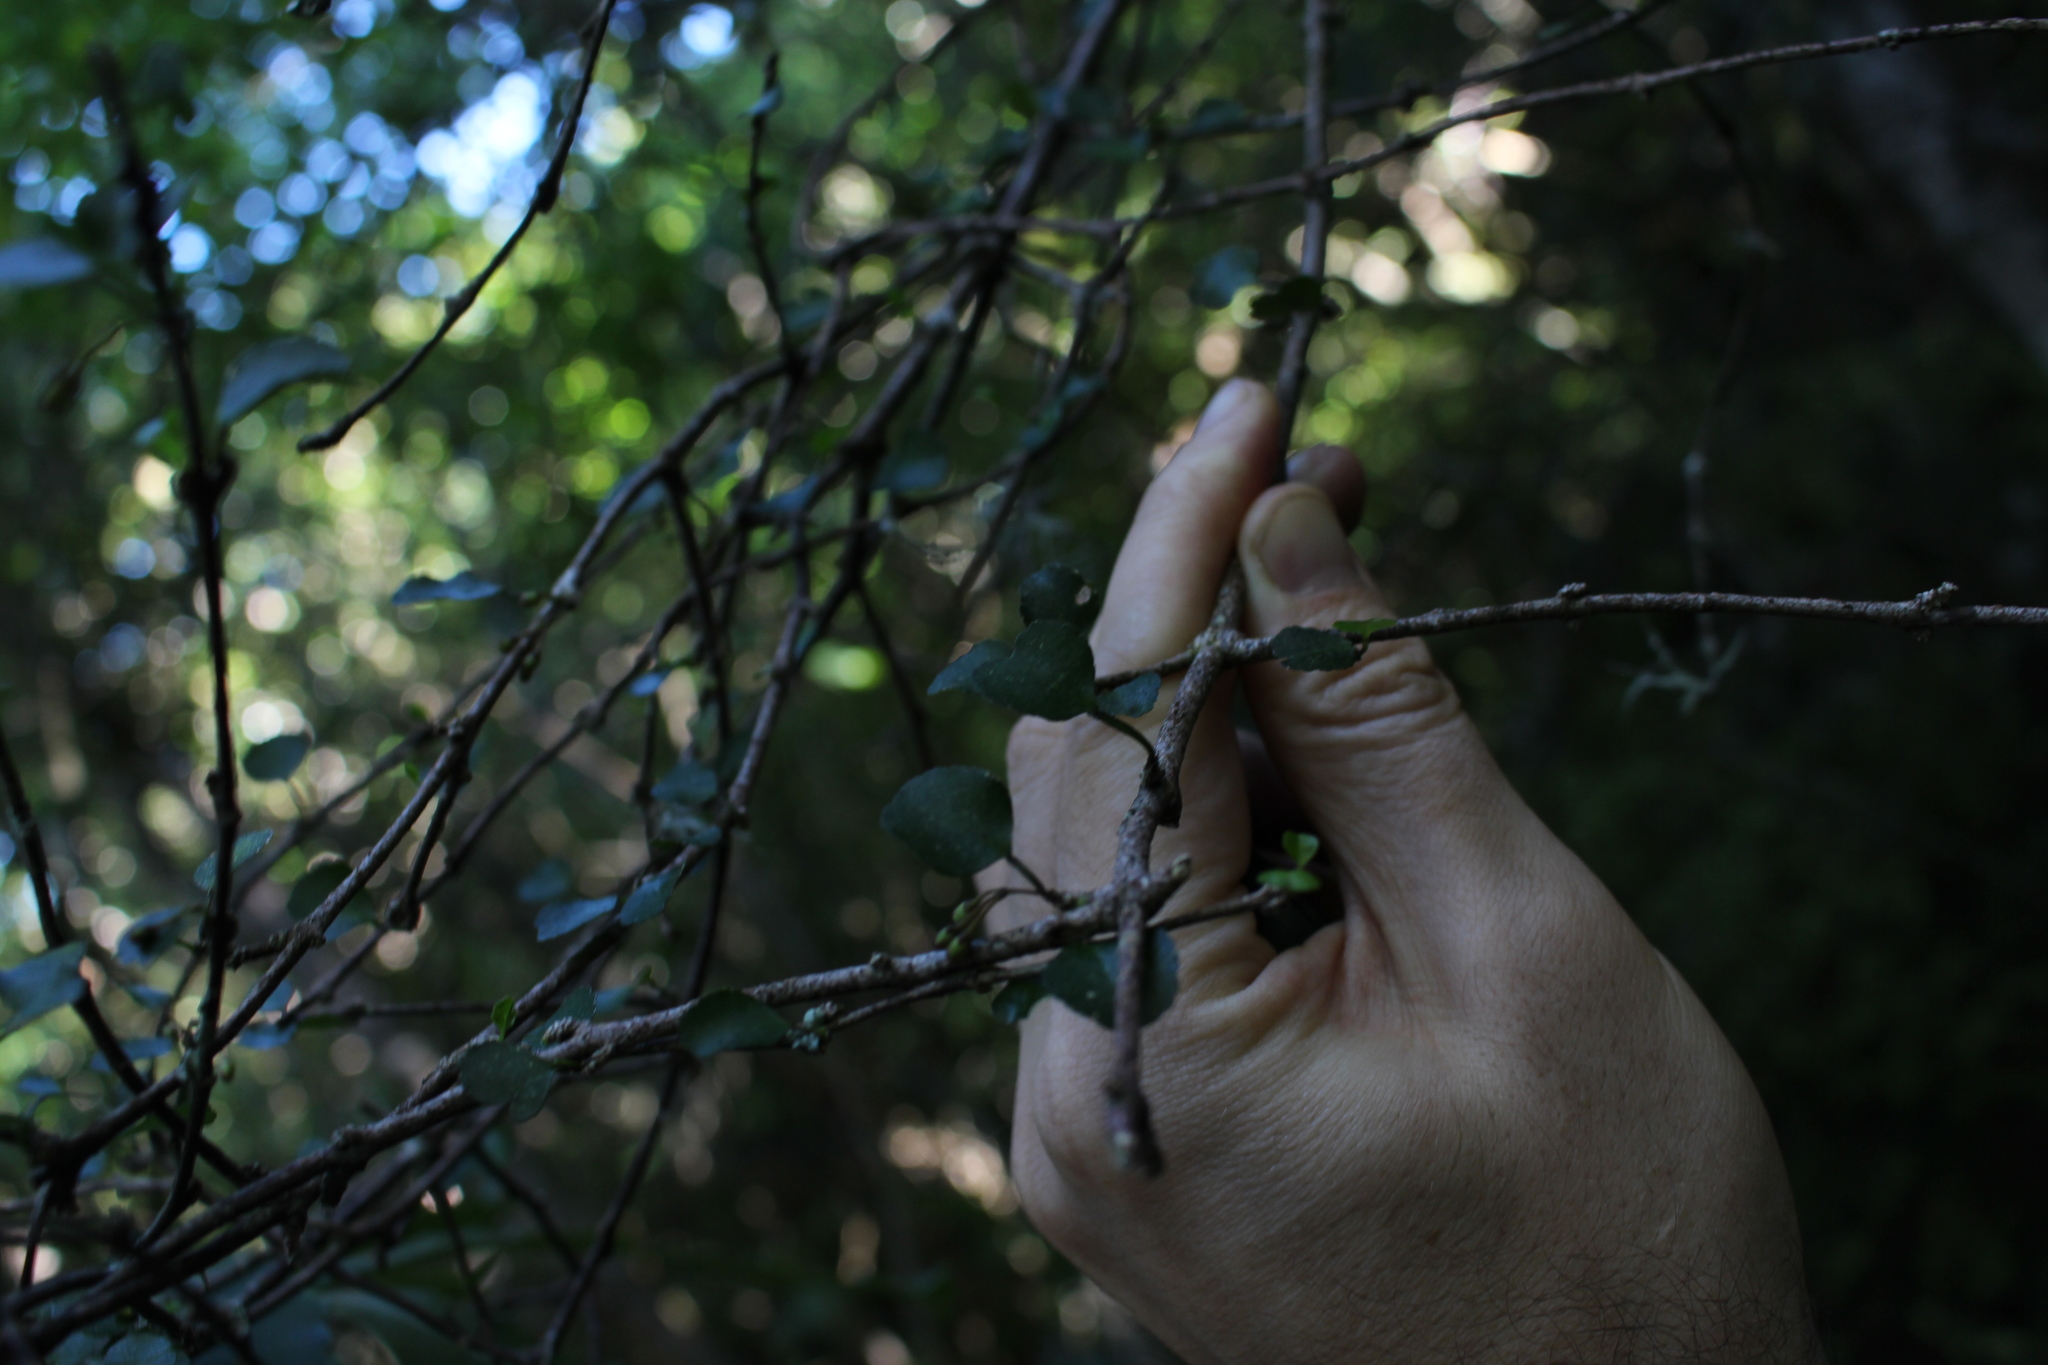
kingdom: Plantae
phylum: Tracheophyta
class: Magnoliopsida
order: Sapindales
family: Rutaceae
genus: Melicope
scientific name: Melicope simplex
